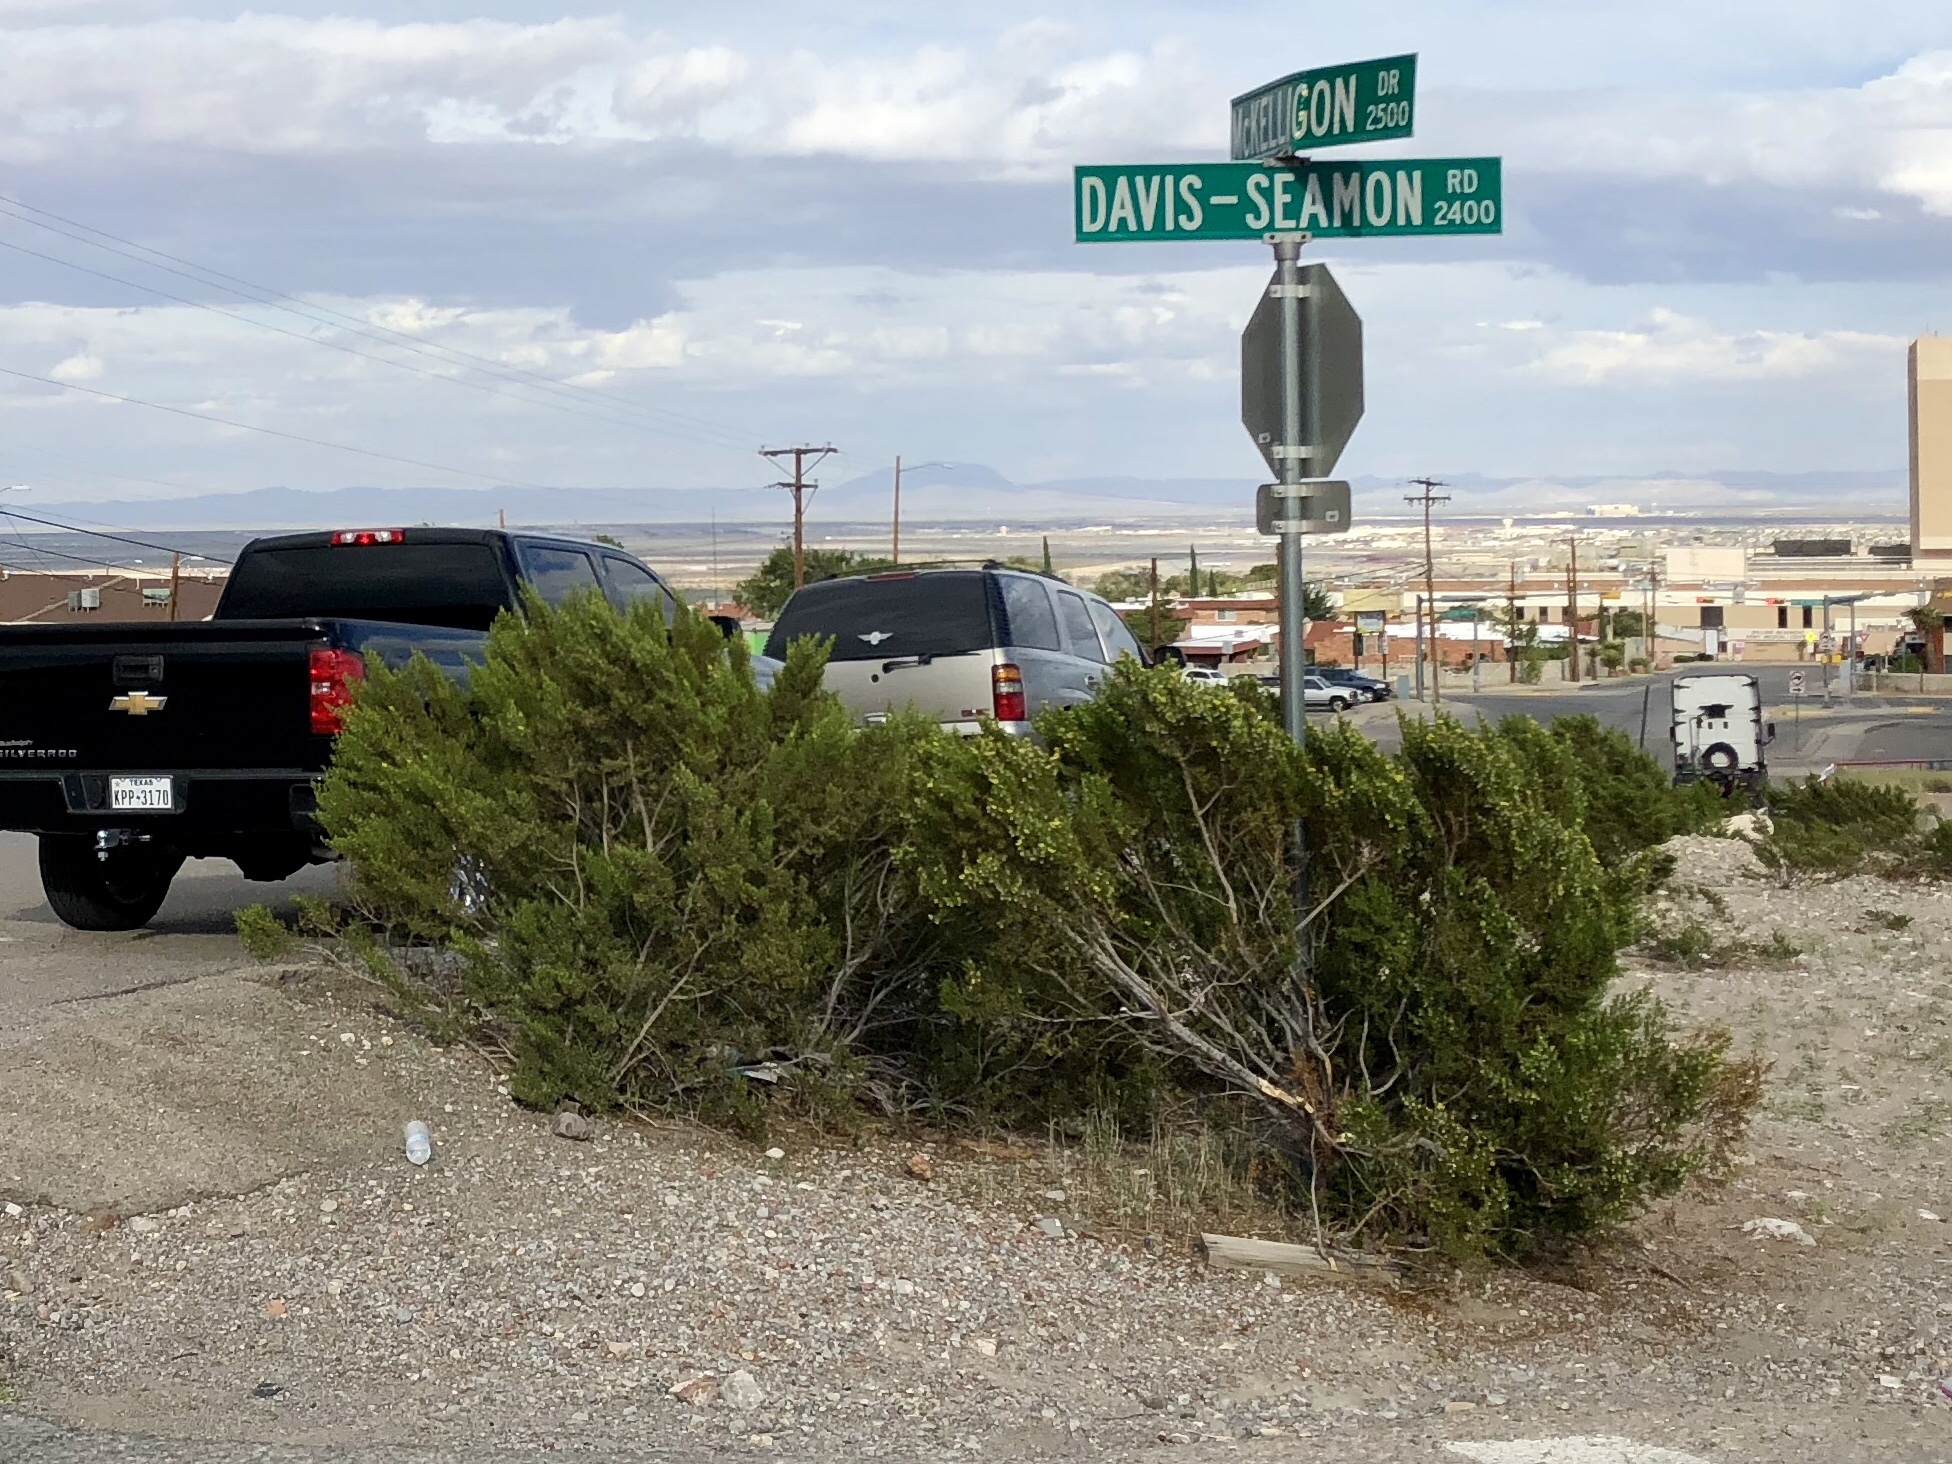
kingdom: Plantae
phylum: Tracheophyta
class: Magnoliopsida
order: Zygophyllales
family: Zygophyllaceae
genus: Larrea
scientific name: Larrea tridentata
